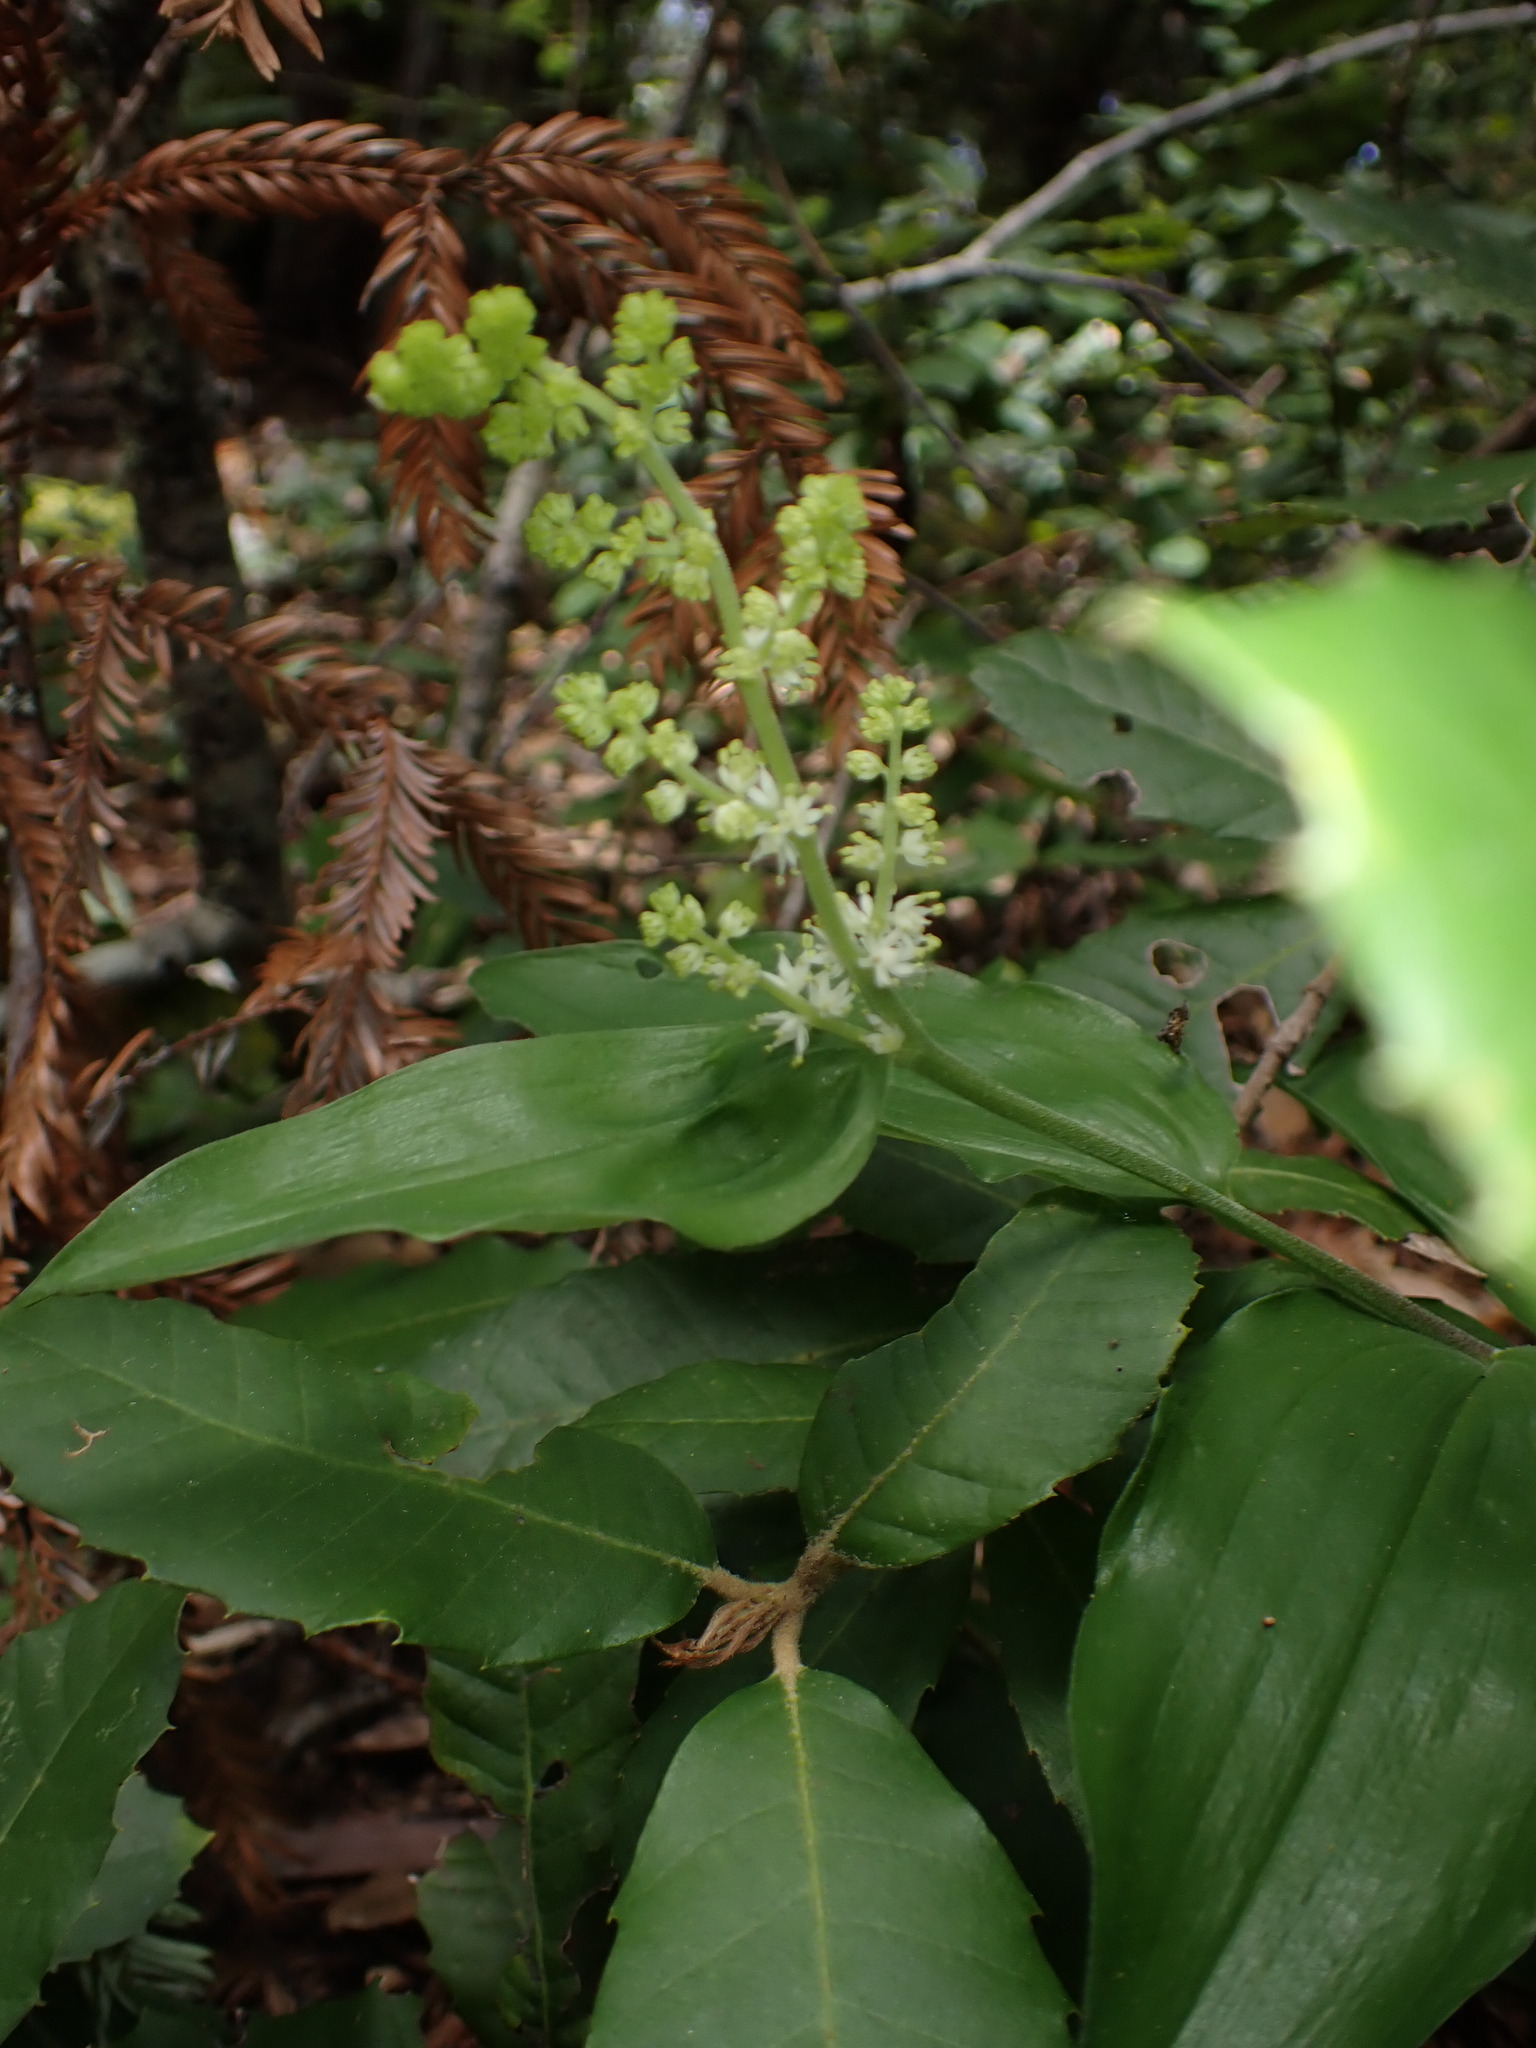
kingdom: Plantae
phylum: Tracheophyta
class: Liliopsida
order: Asparagales
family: Asparagaceae
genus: Maianthemum
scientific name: Maianthemum racemosum
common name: False spikenard
